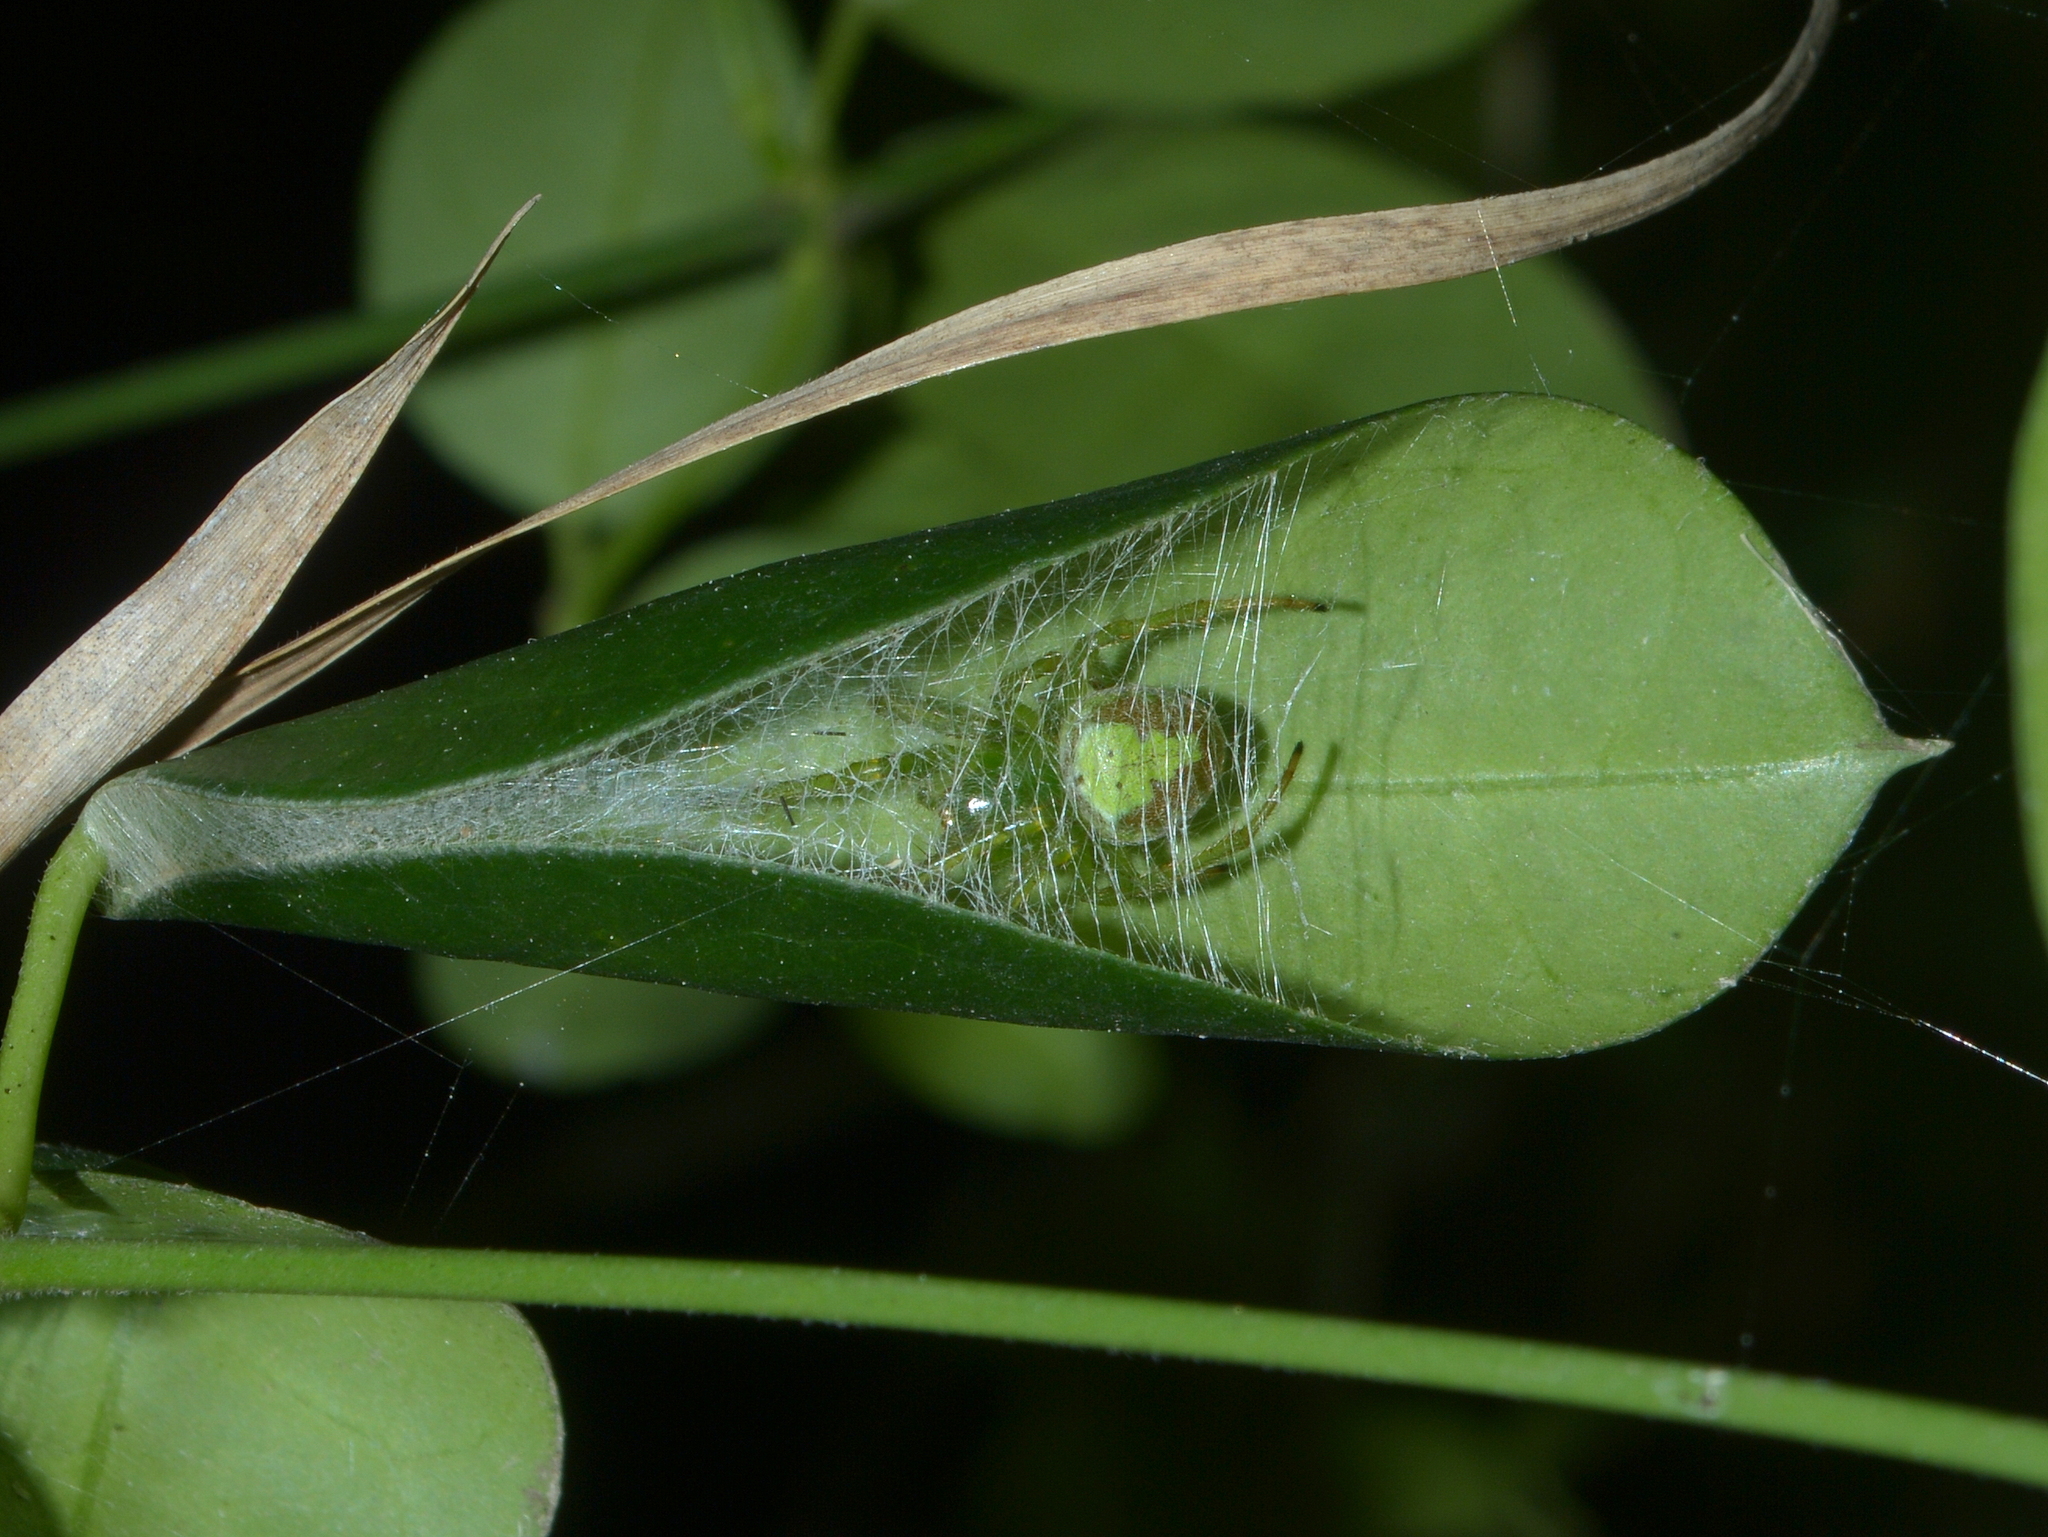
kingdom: Animalia
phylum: Arthropoda
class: Arachnida
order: Araneae
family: Araneidae
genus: Araneus
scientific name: Araneus unanimus
